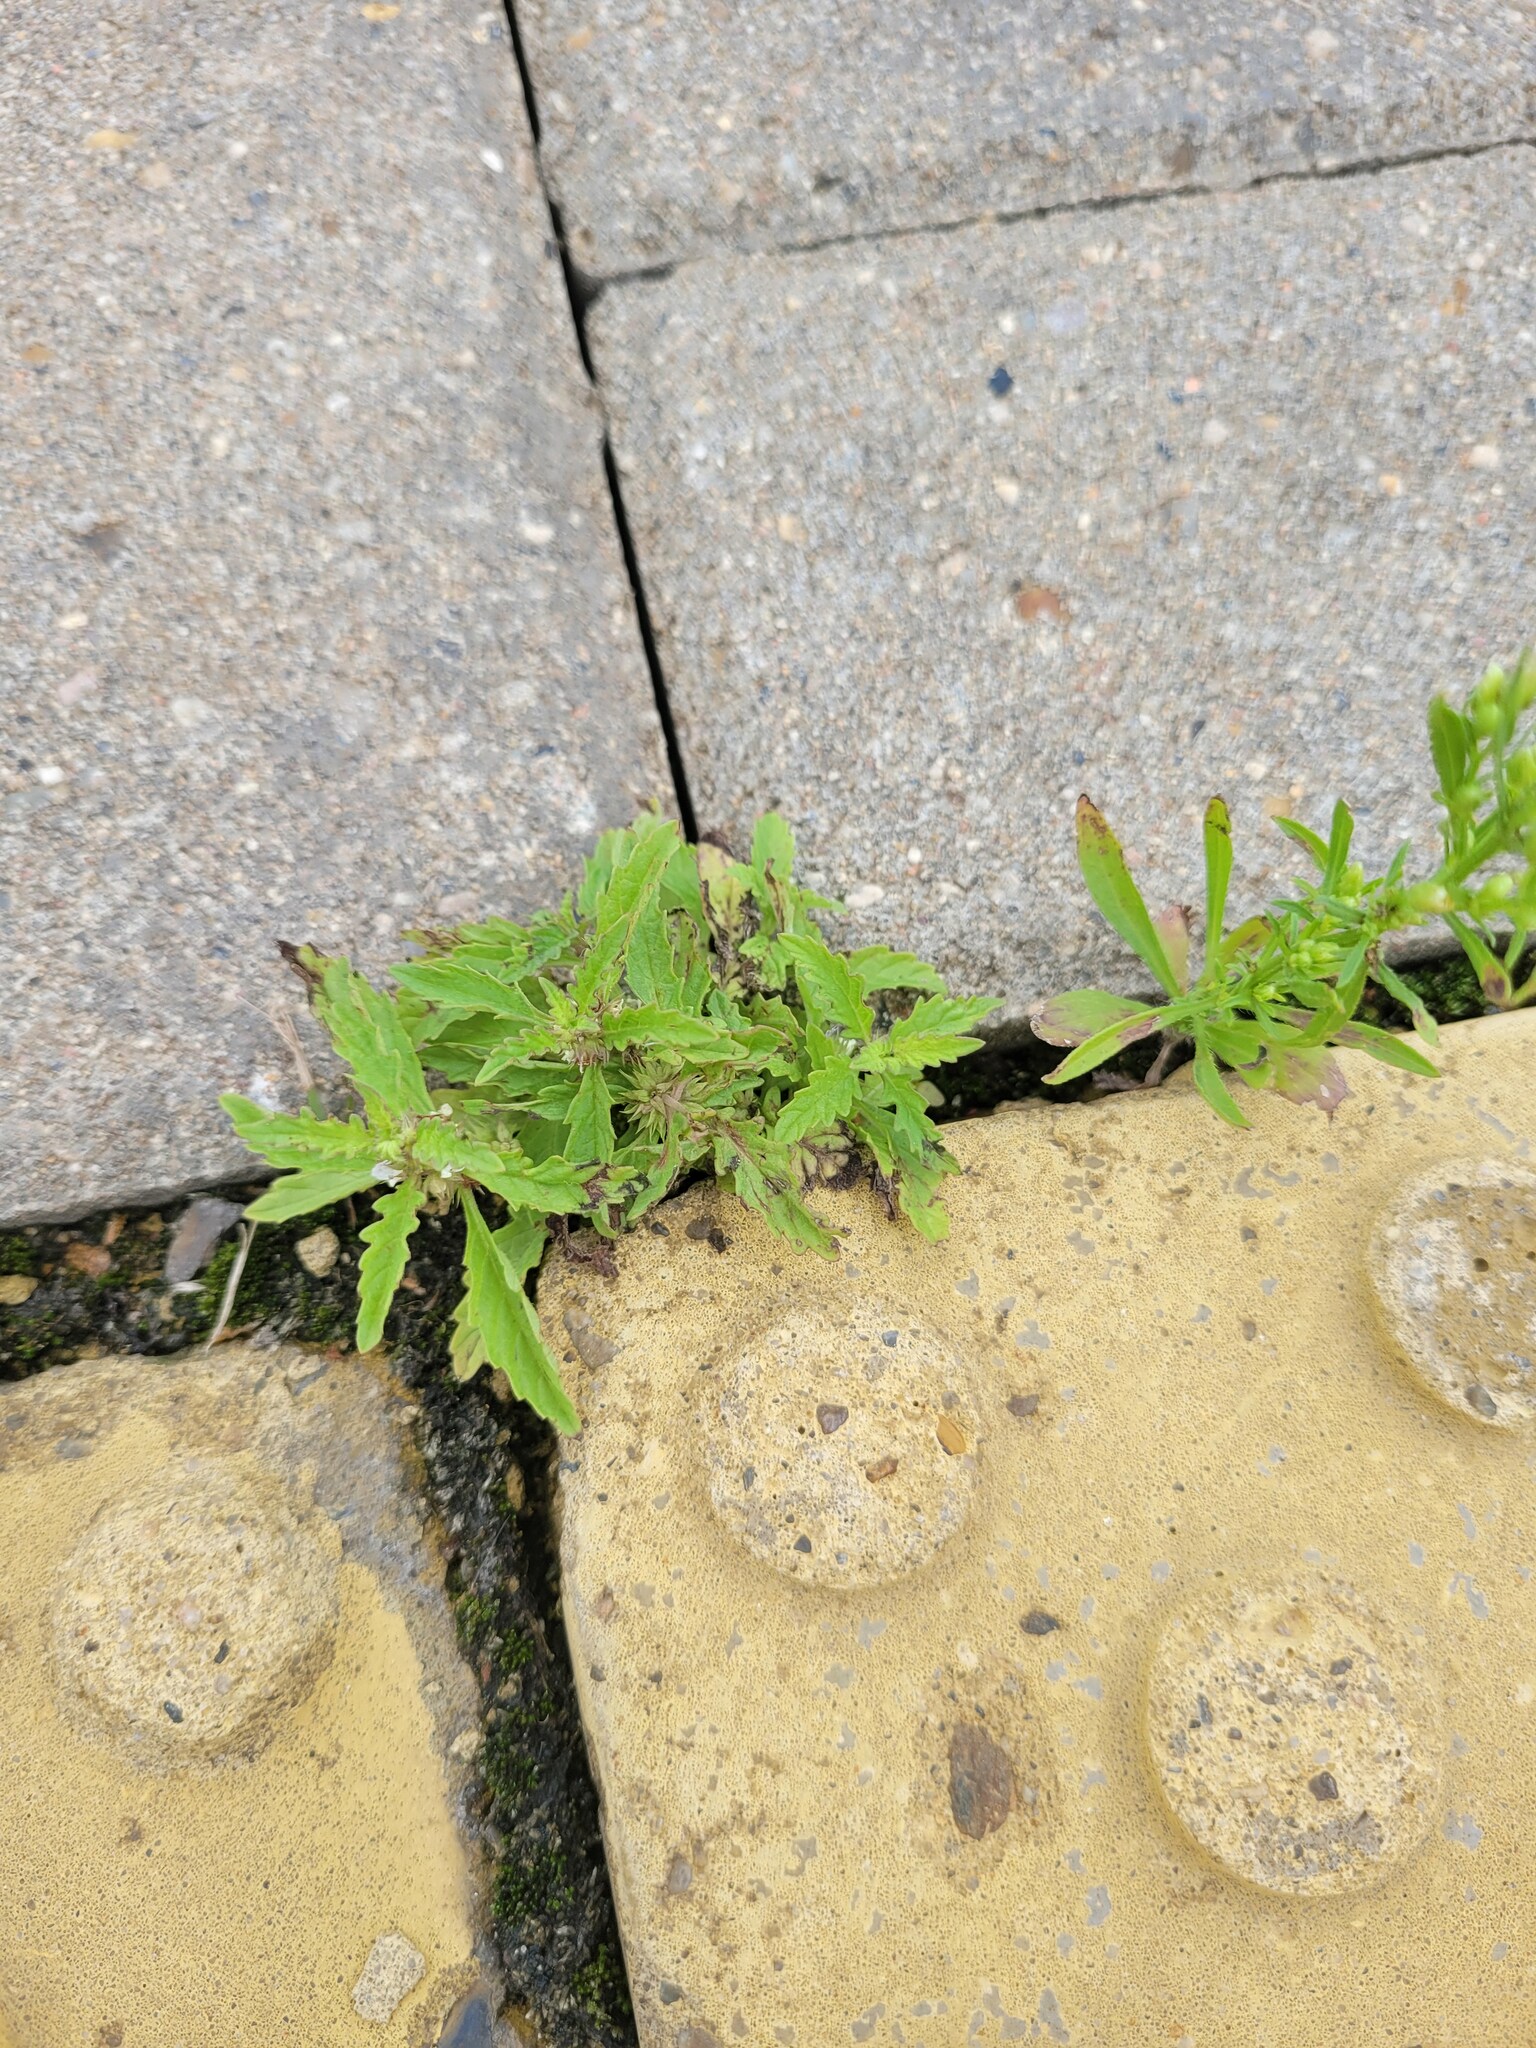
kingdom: Plantae
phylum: Tracheophyta
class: Magnoliopsida
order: Lamiales
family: Lamiaceae
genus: Lycopus
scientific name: Lycopus europaeus
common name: European bugleweed
